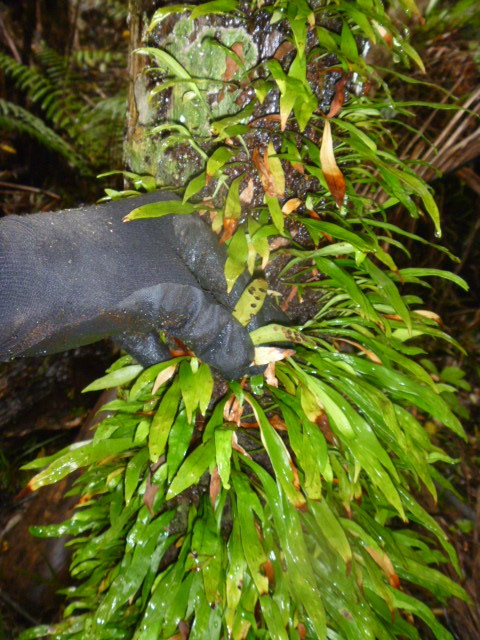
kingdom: Plantae
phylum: Tracheophyta
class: Polypodiopsida
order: Polypodiales
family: Polypodiaceae
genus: Loxogramme
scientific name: Loxogramme dictyopteris
